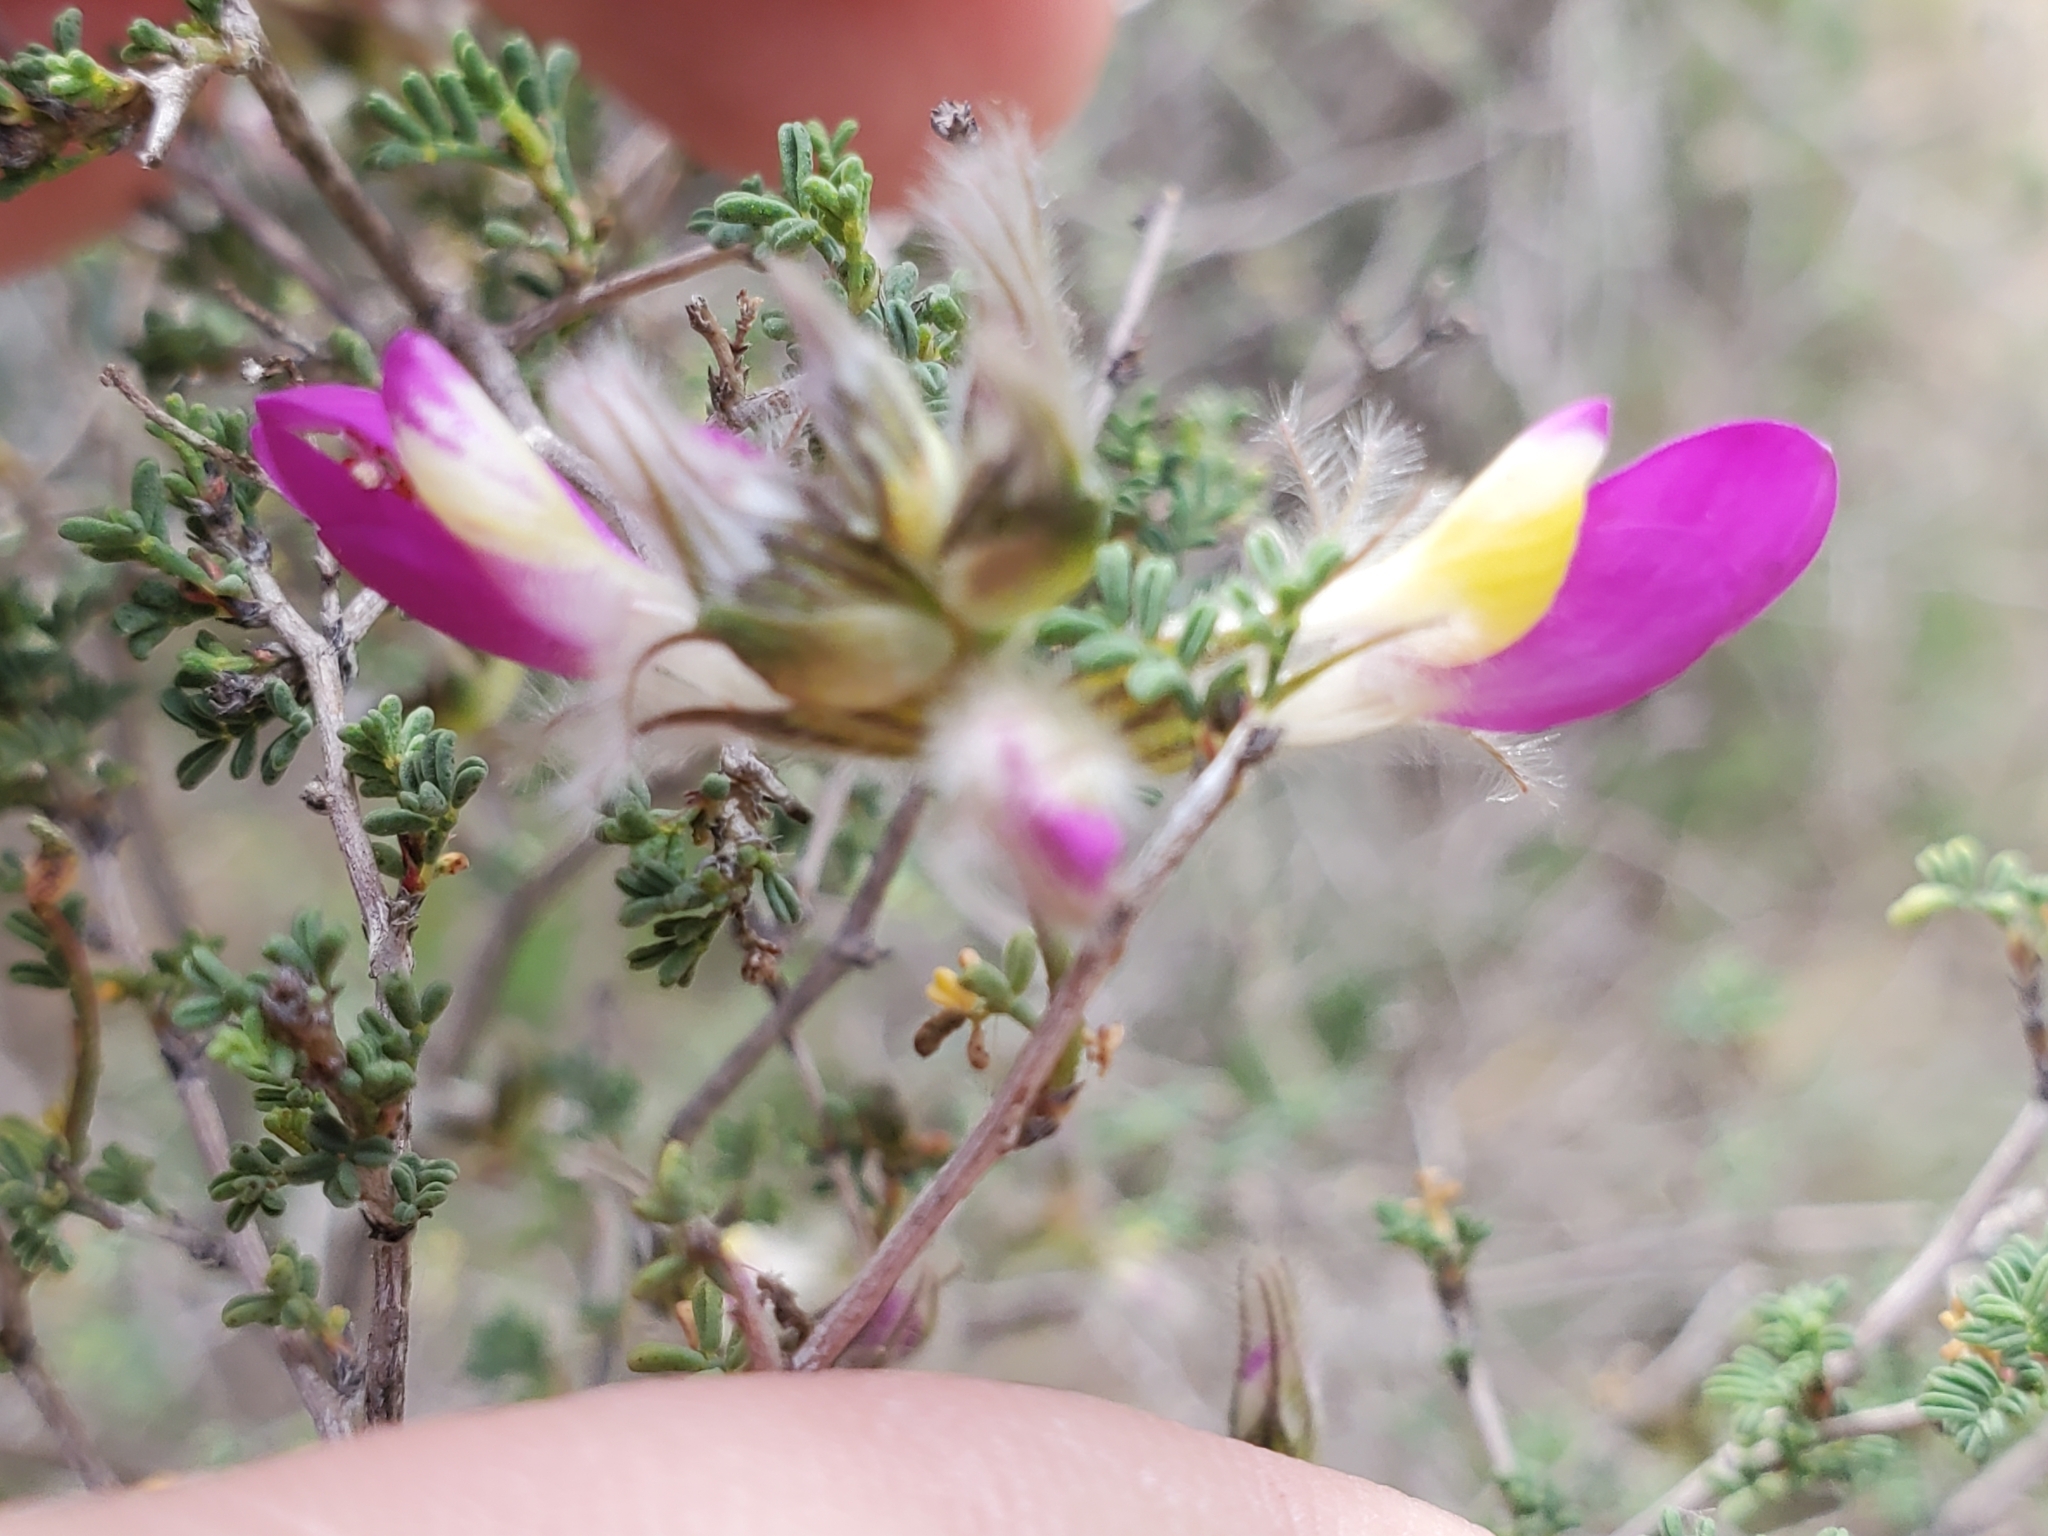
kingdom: Plantae
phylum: Tracheophyta
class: Magnoliopsida
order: Fabales
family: Fabaceae
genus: Dalea
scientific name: Dalea formosa
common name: Feather-plume dalea
